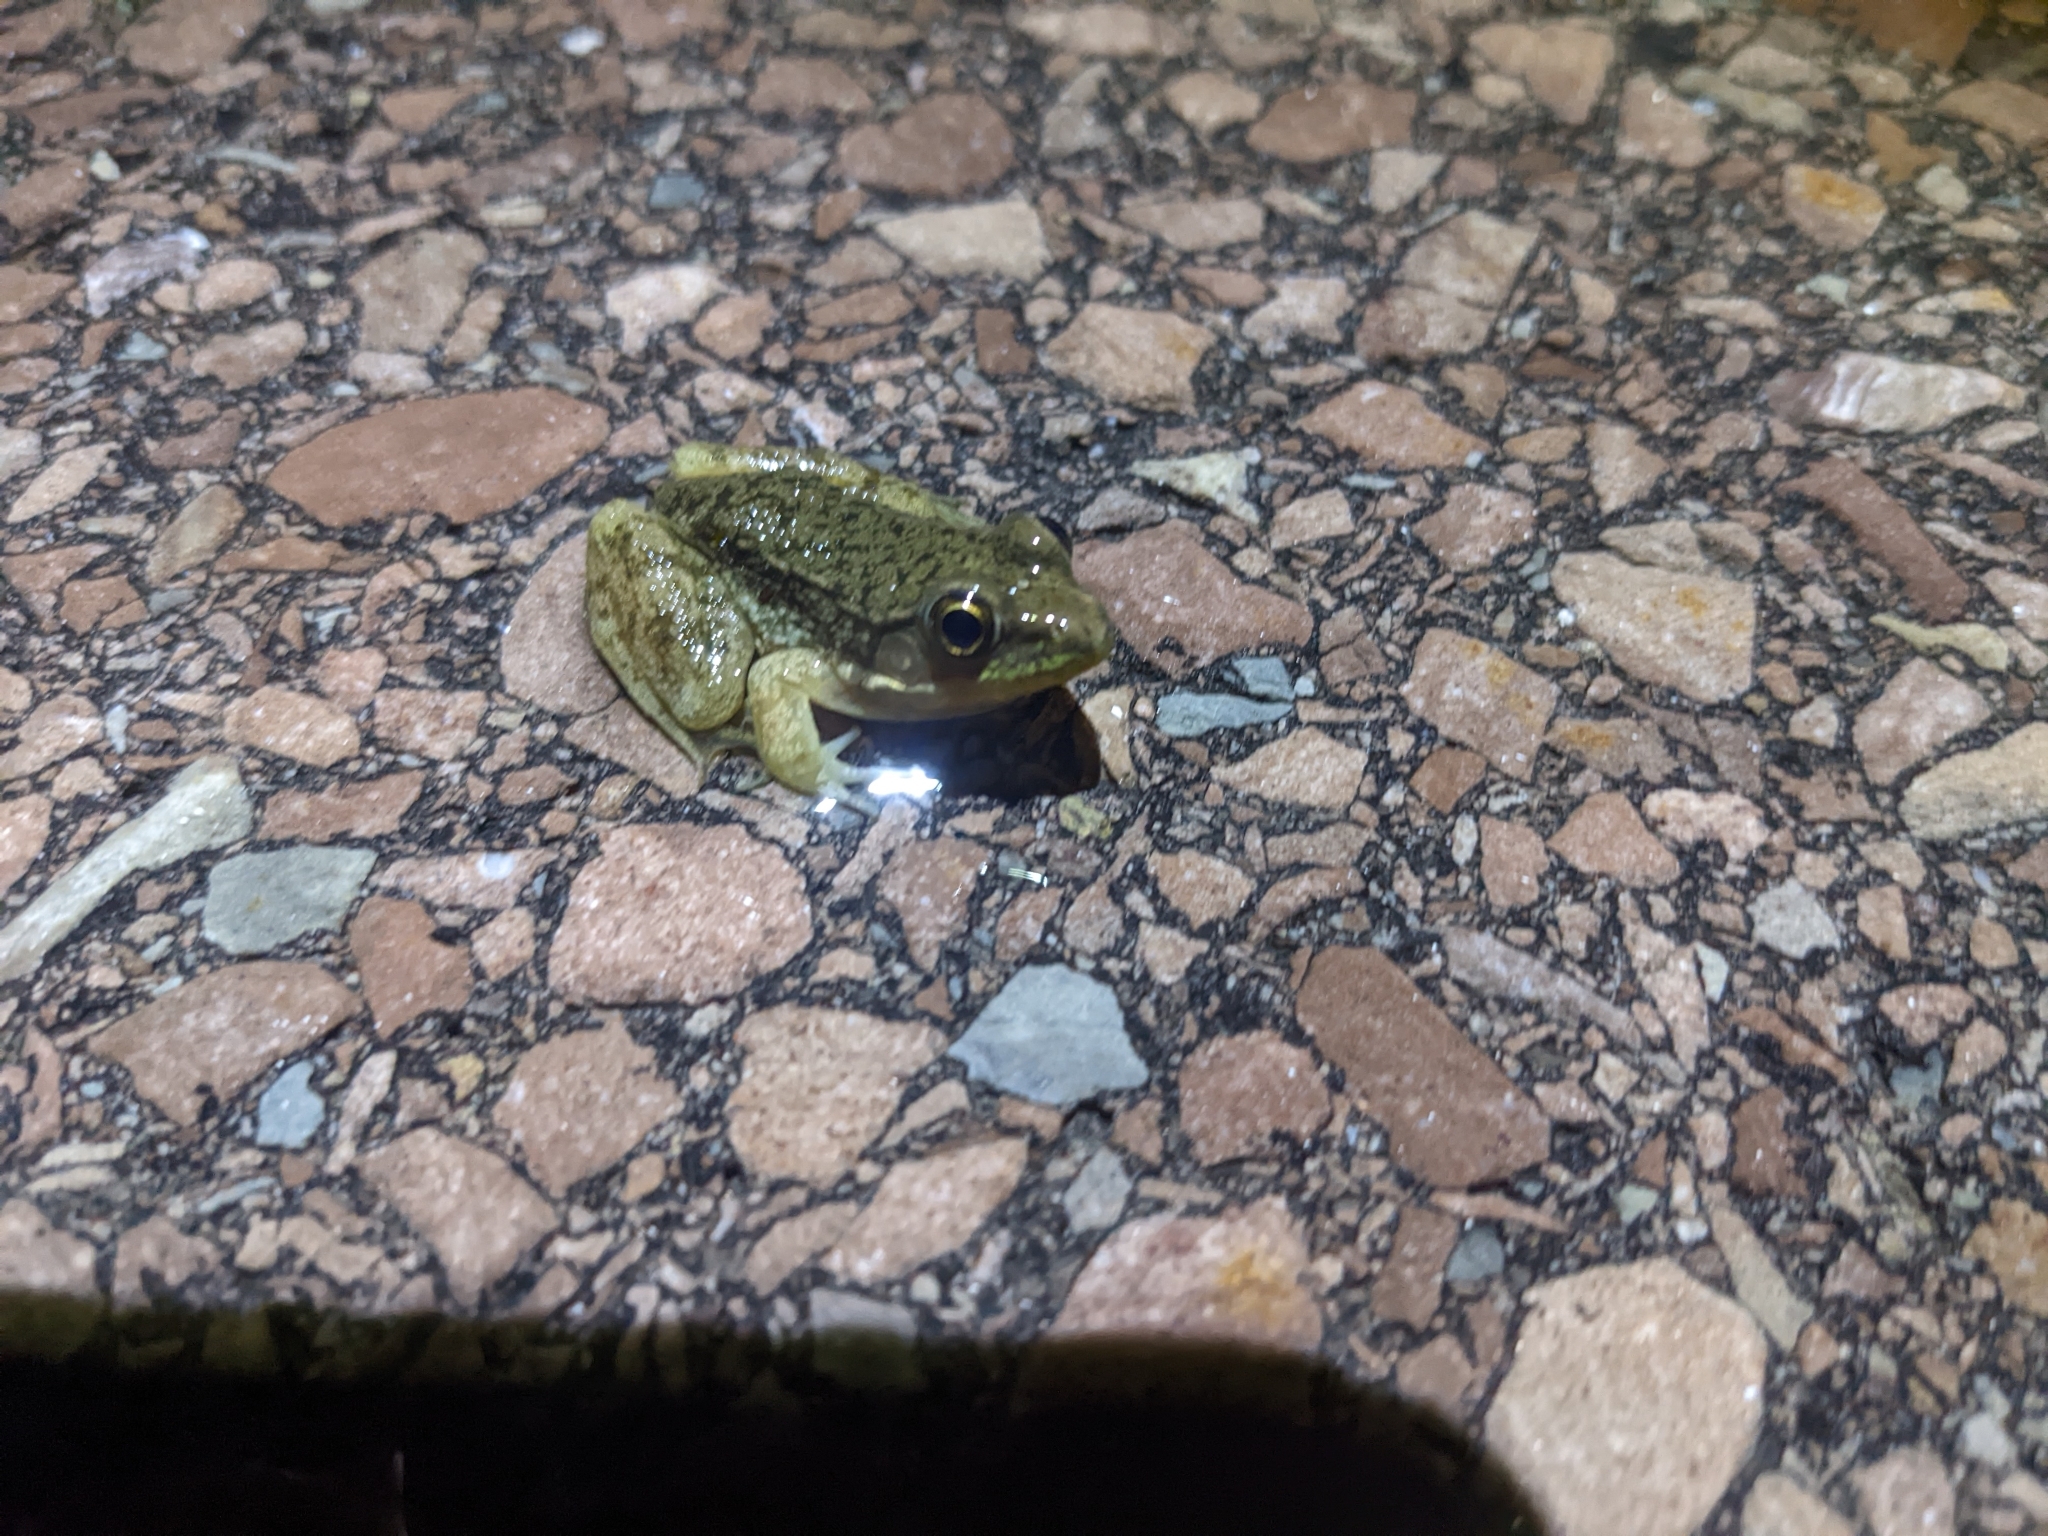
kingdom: Animalia
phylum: Chordata
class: Amphibia
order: Anura
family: Ranidae
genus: Lithobates
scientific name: Lithobates clamitans
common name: Green frog
